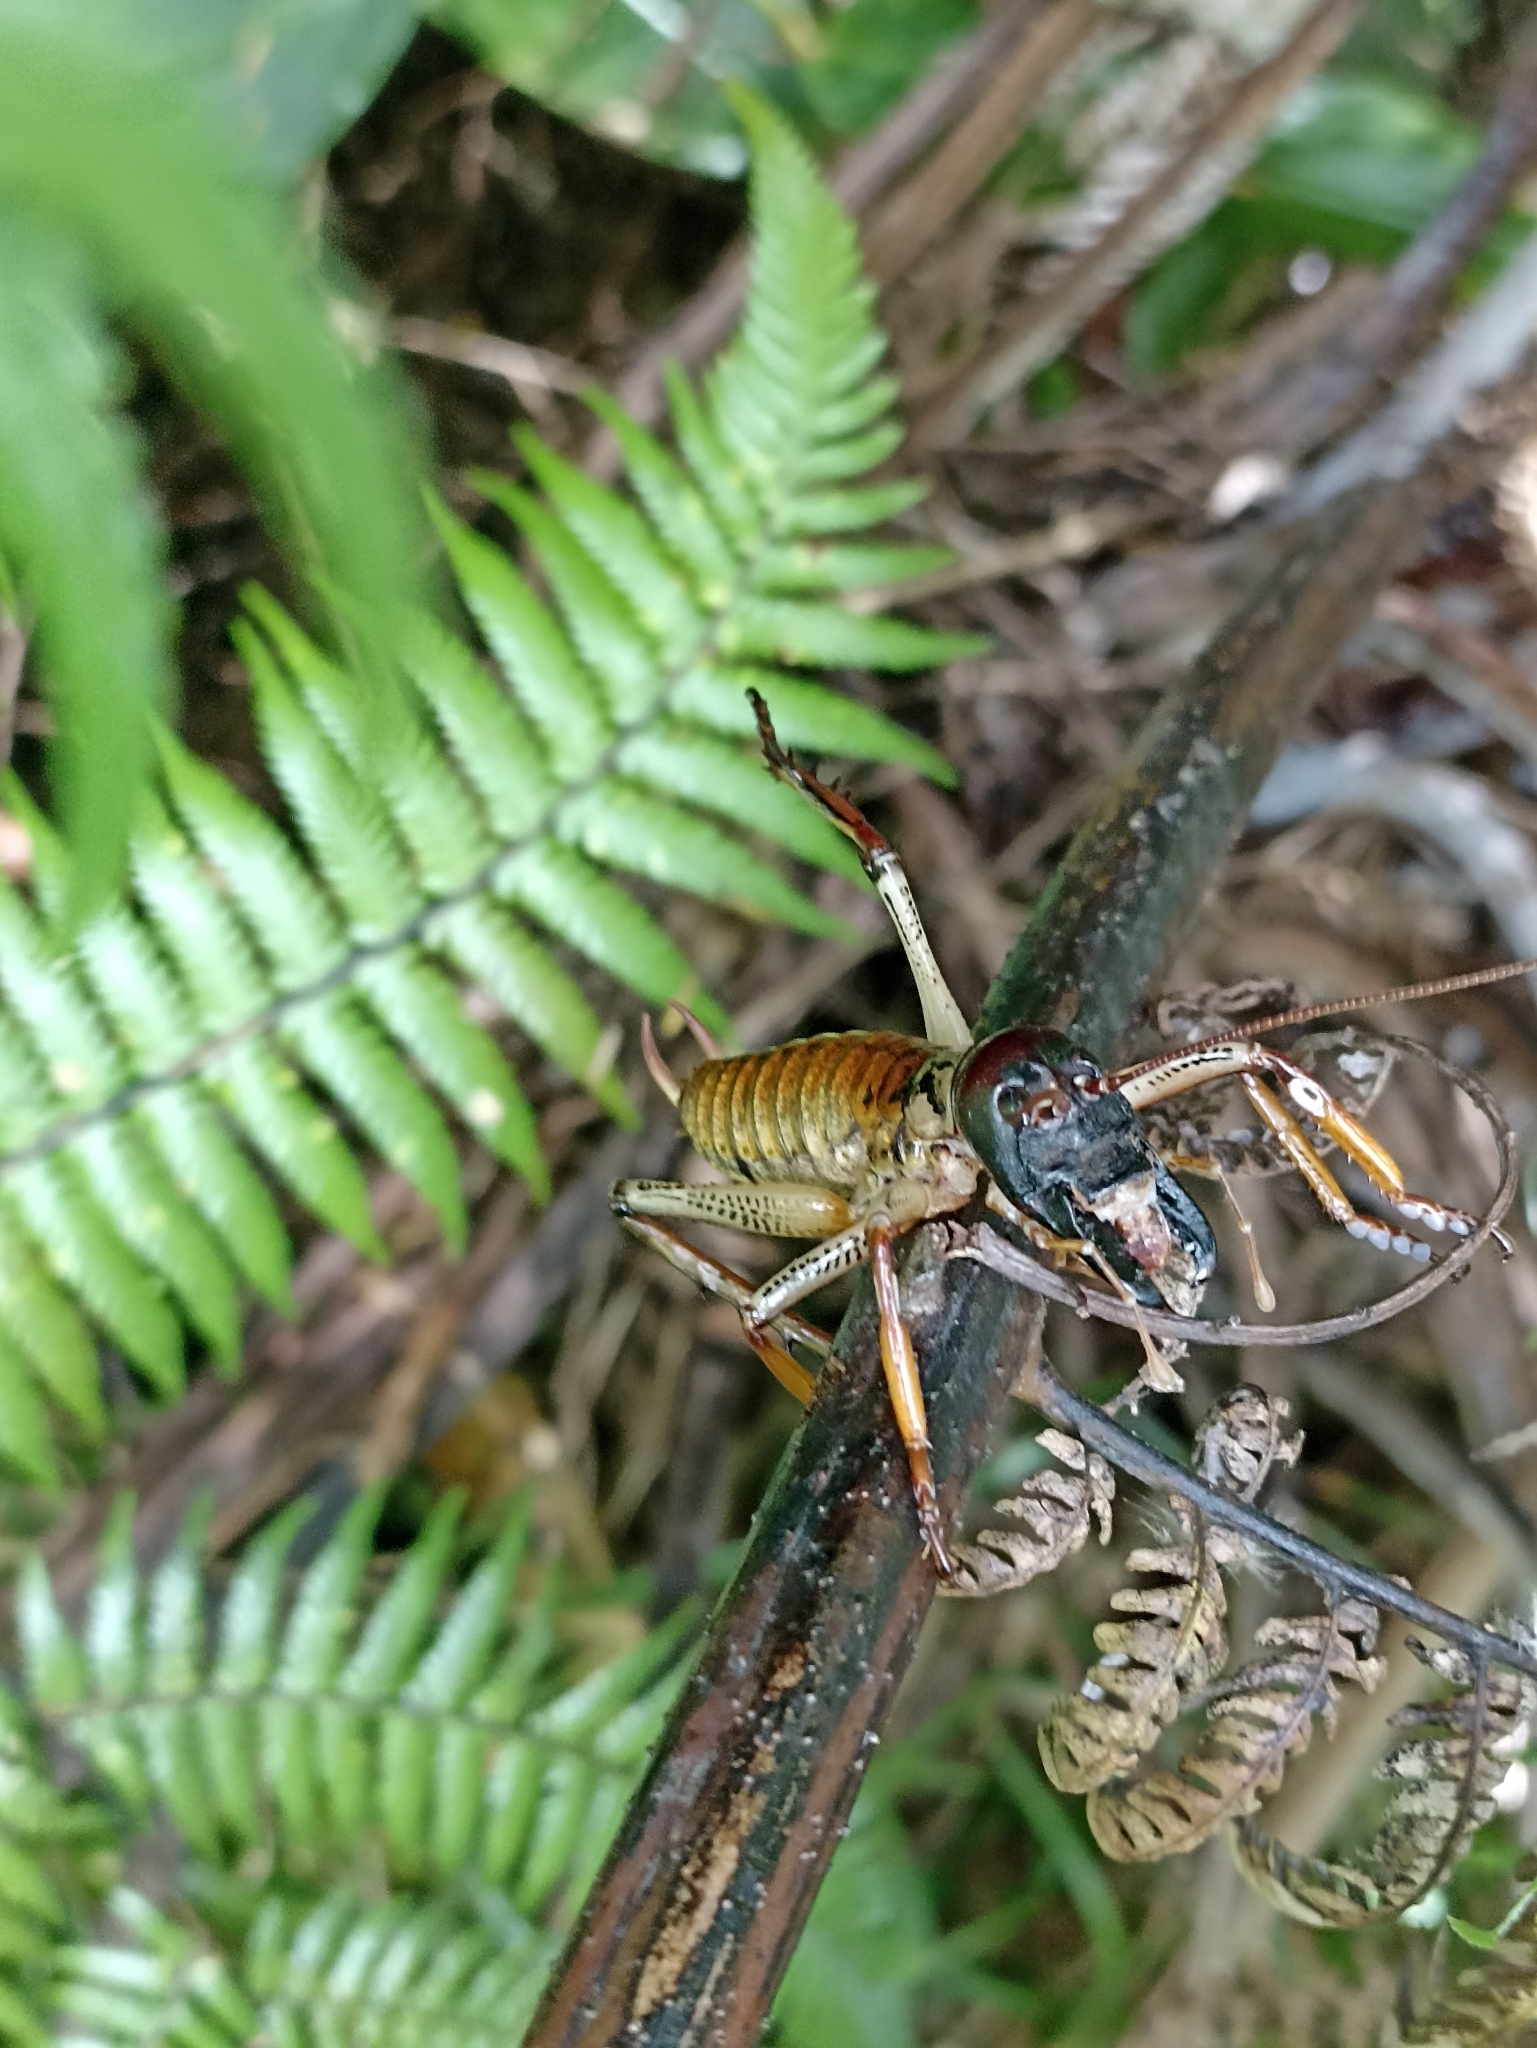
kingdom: Animalia
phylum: Arthropoda
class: Insecta
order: Orthoptera
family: Anostostomatidae
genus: Hemideina
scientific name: Hemideina thoracica
